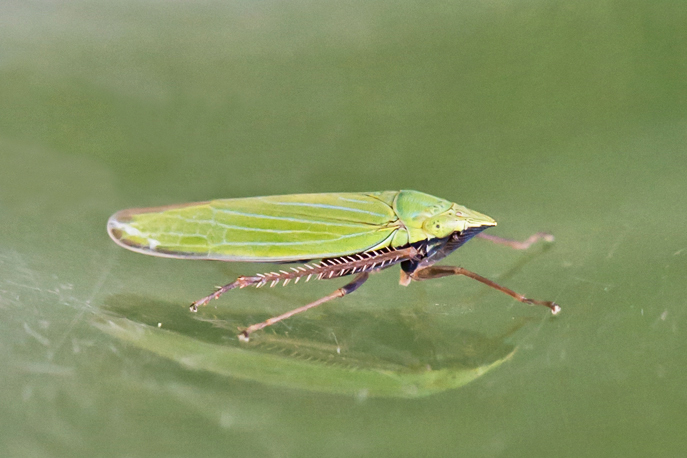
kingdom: Animalia
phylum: Arthropoda
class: Insecta
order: Hemiptera
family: Cicadellidae
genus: Draeculacephala
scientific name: Draeculacephala robinsoni
